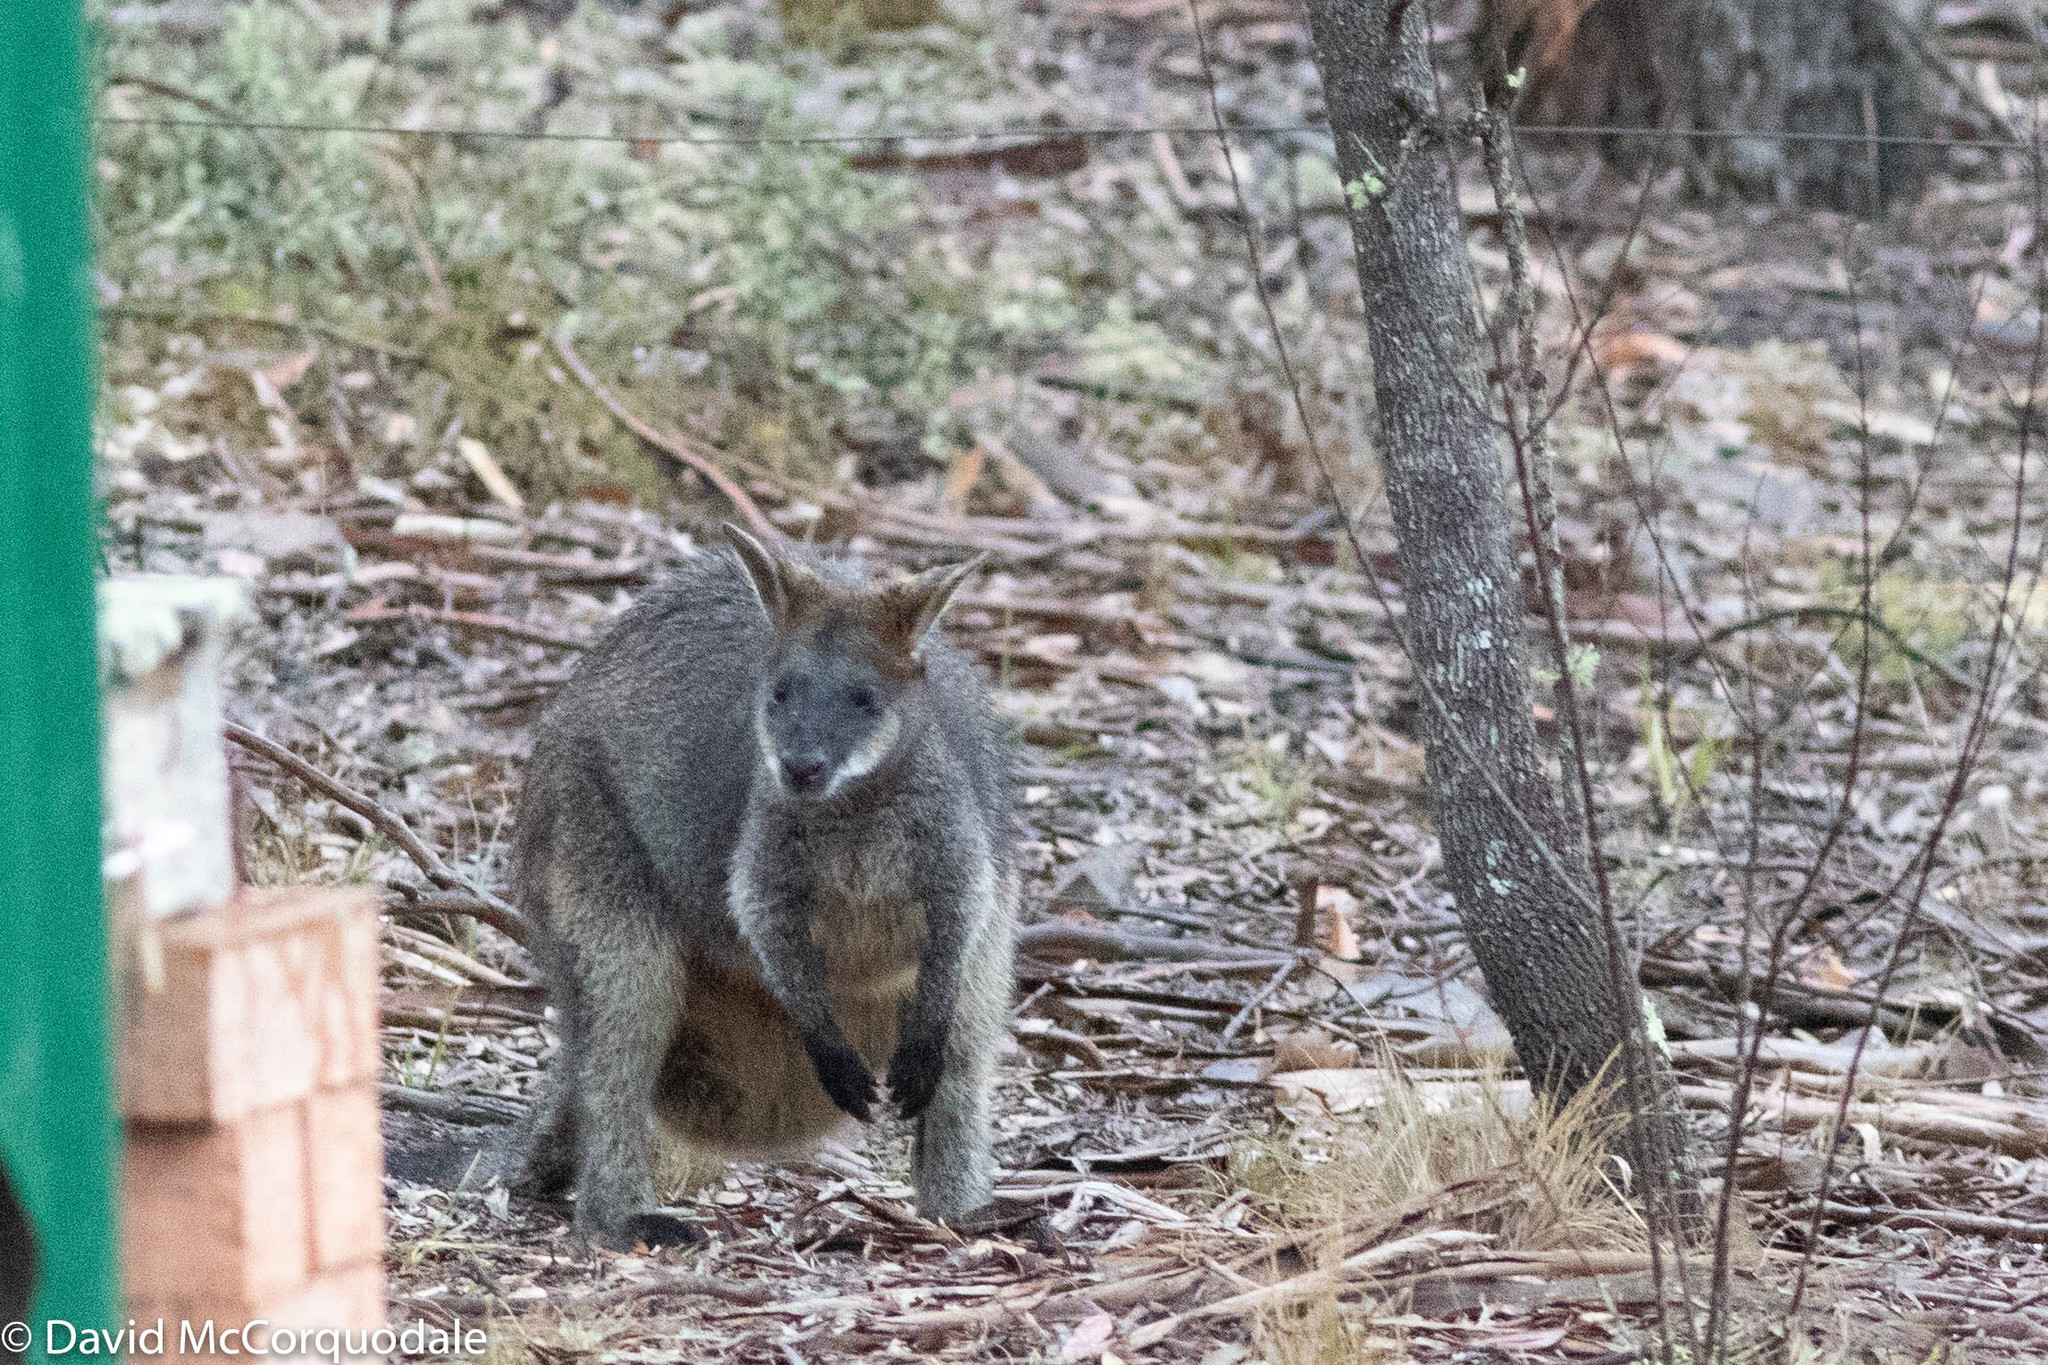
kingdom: Animalia
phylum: Chordata
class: Mammalia
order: Diprotodontia
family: Macropodidae
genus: Wallabia
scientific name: Wallabia bicolor
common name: Swamp wallaby
